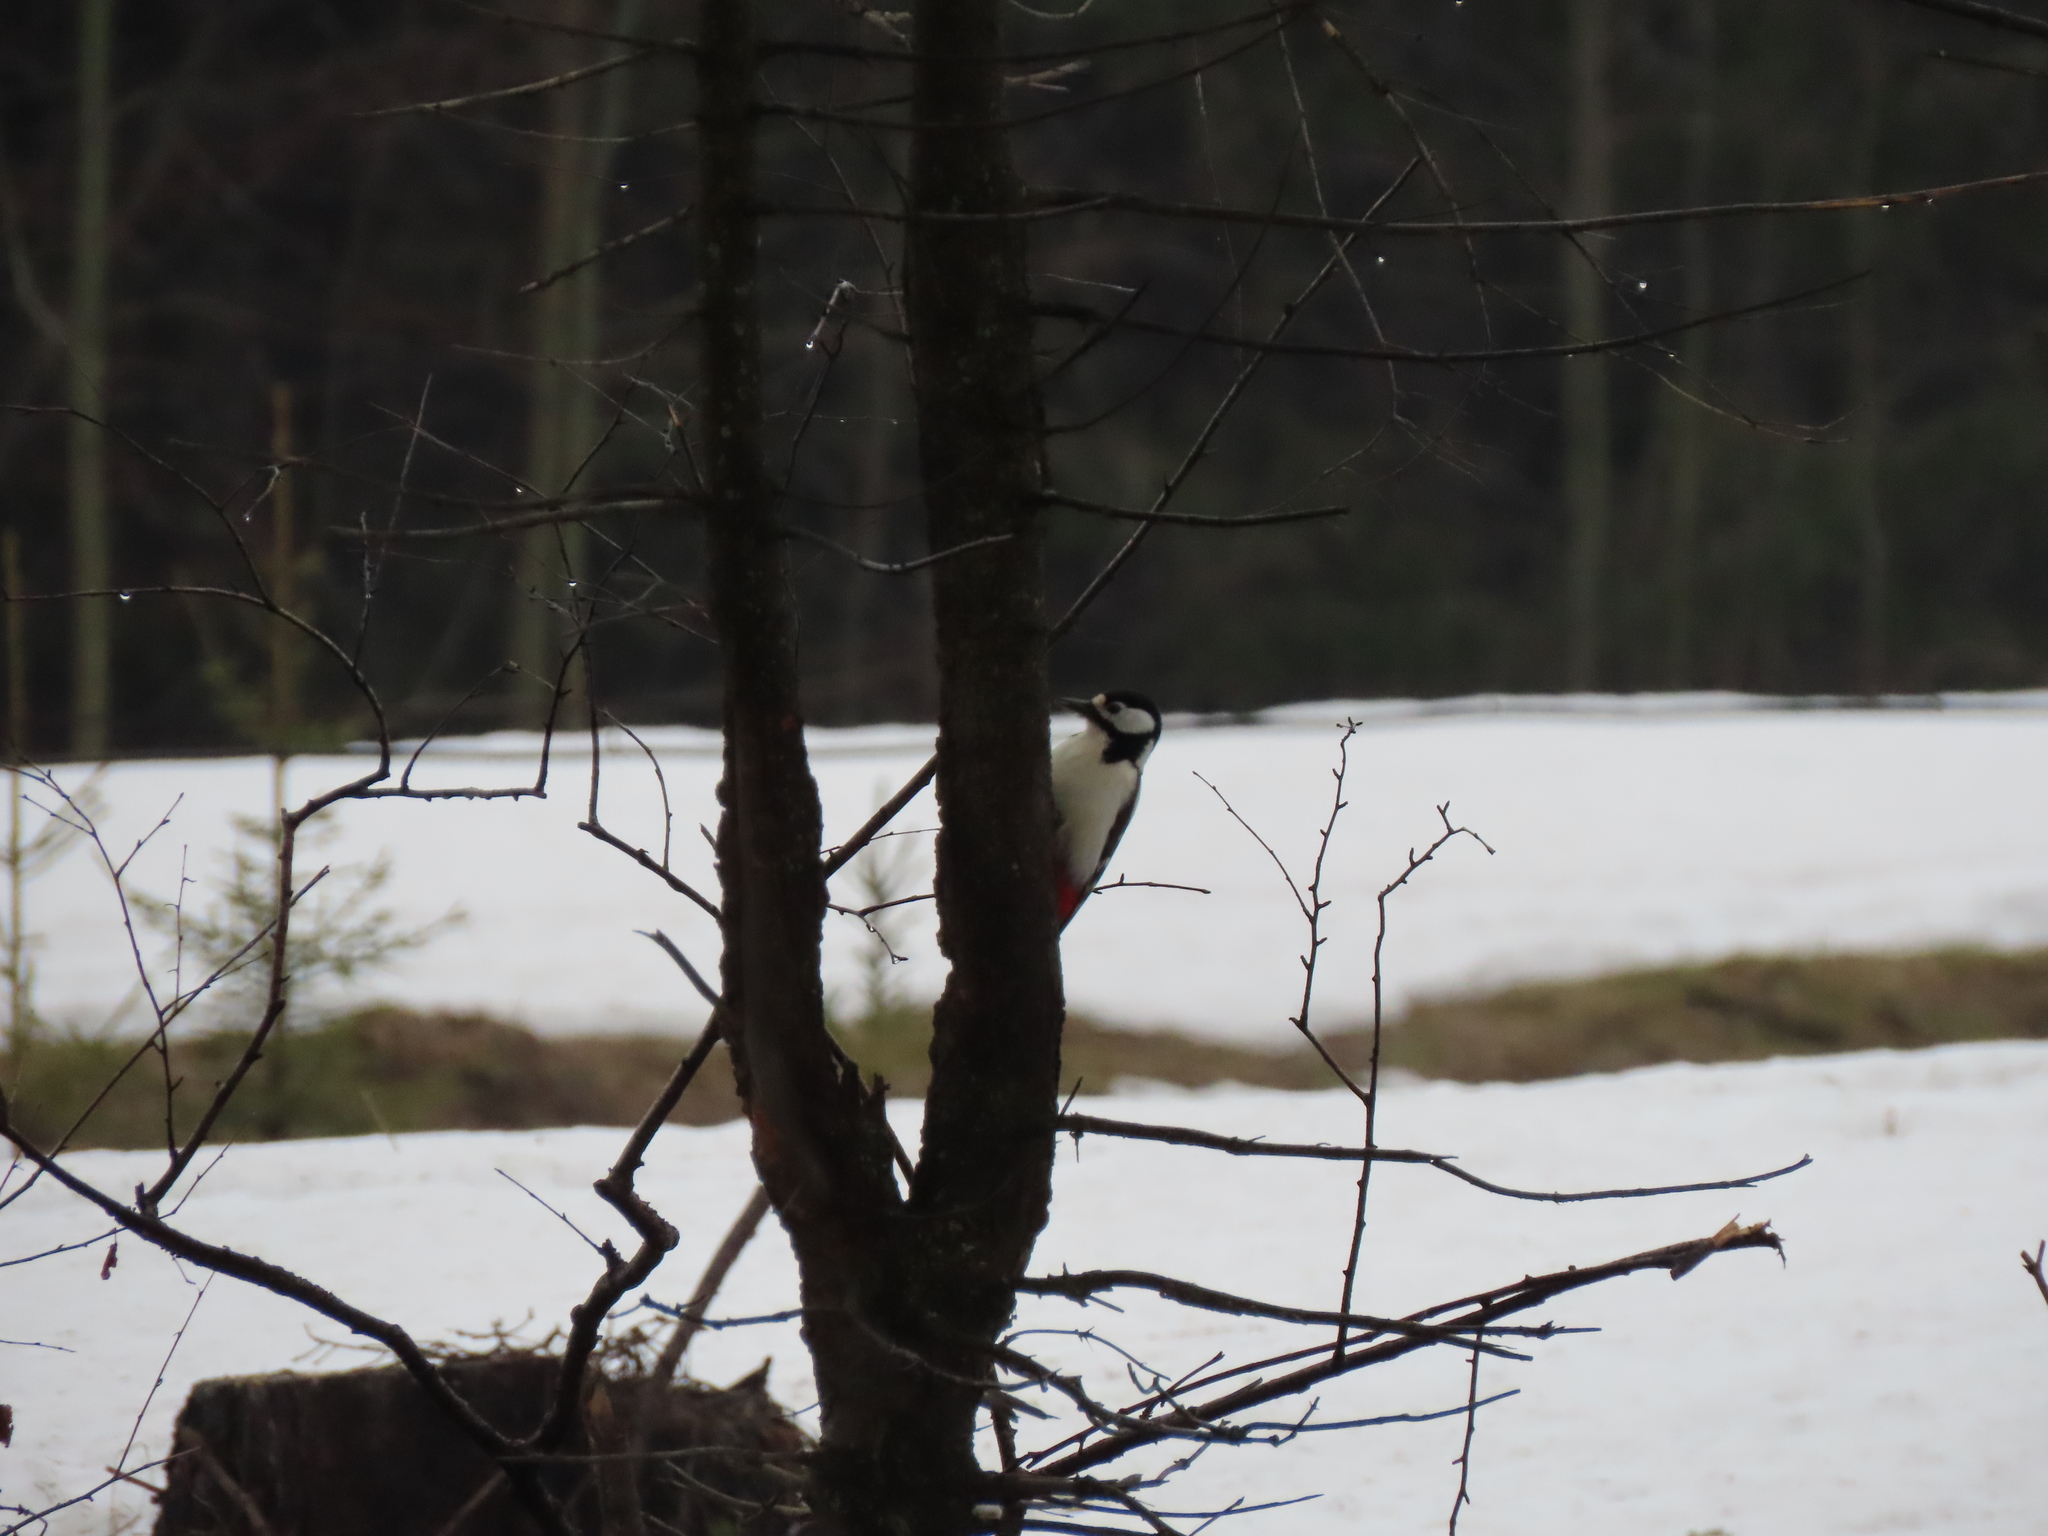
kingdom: Animalia
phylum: Chordata
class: Aves
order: Piciformes
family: Picidae
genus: Dendrocopos
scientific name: Dendrocopos major
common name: Great spotted woodpecker
